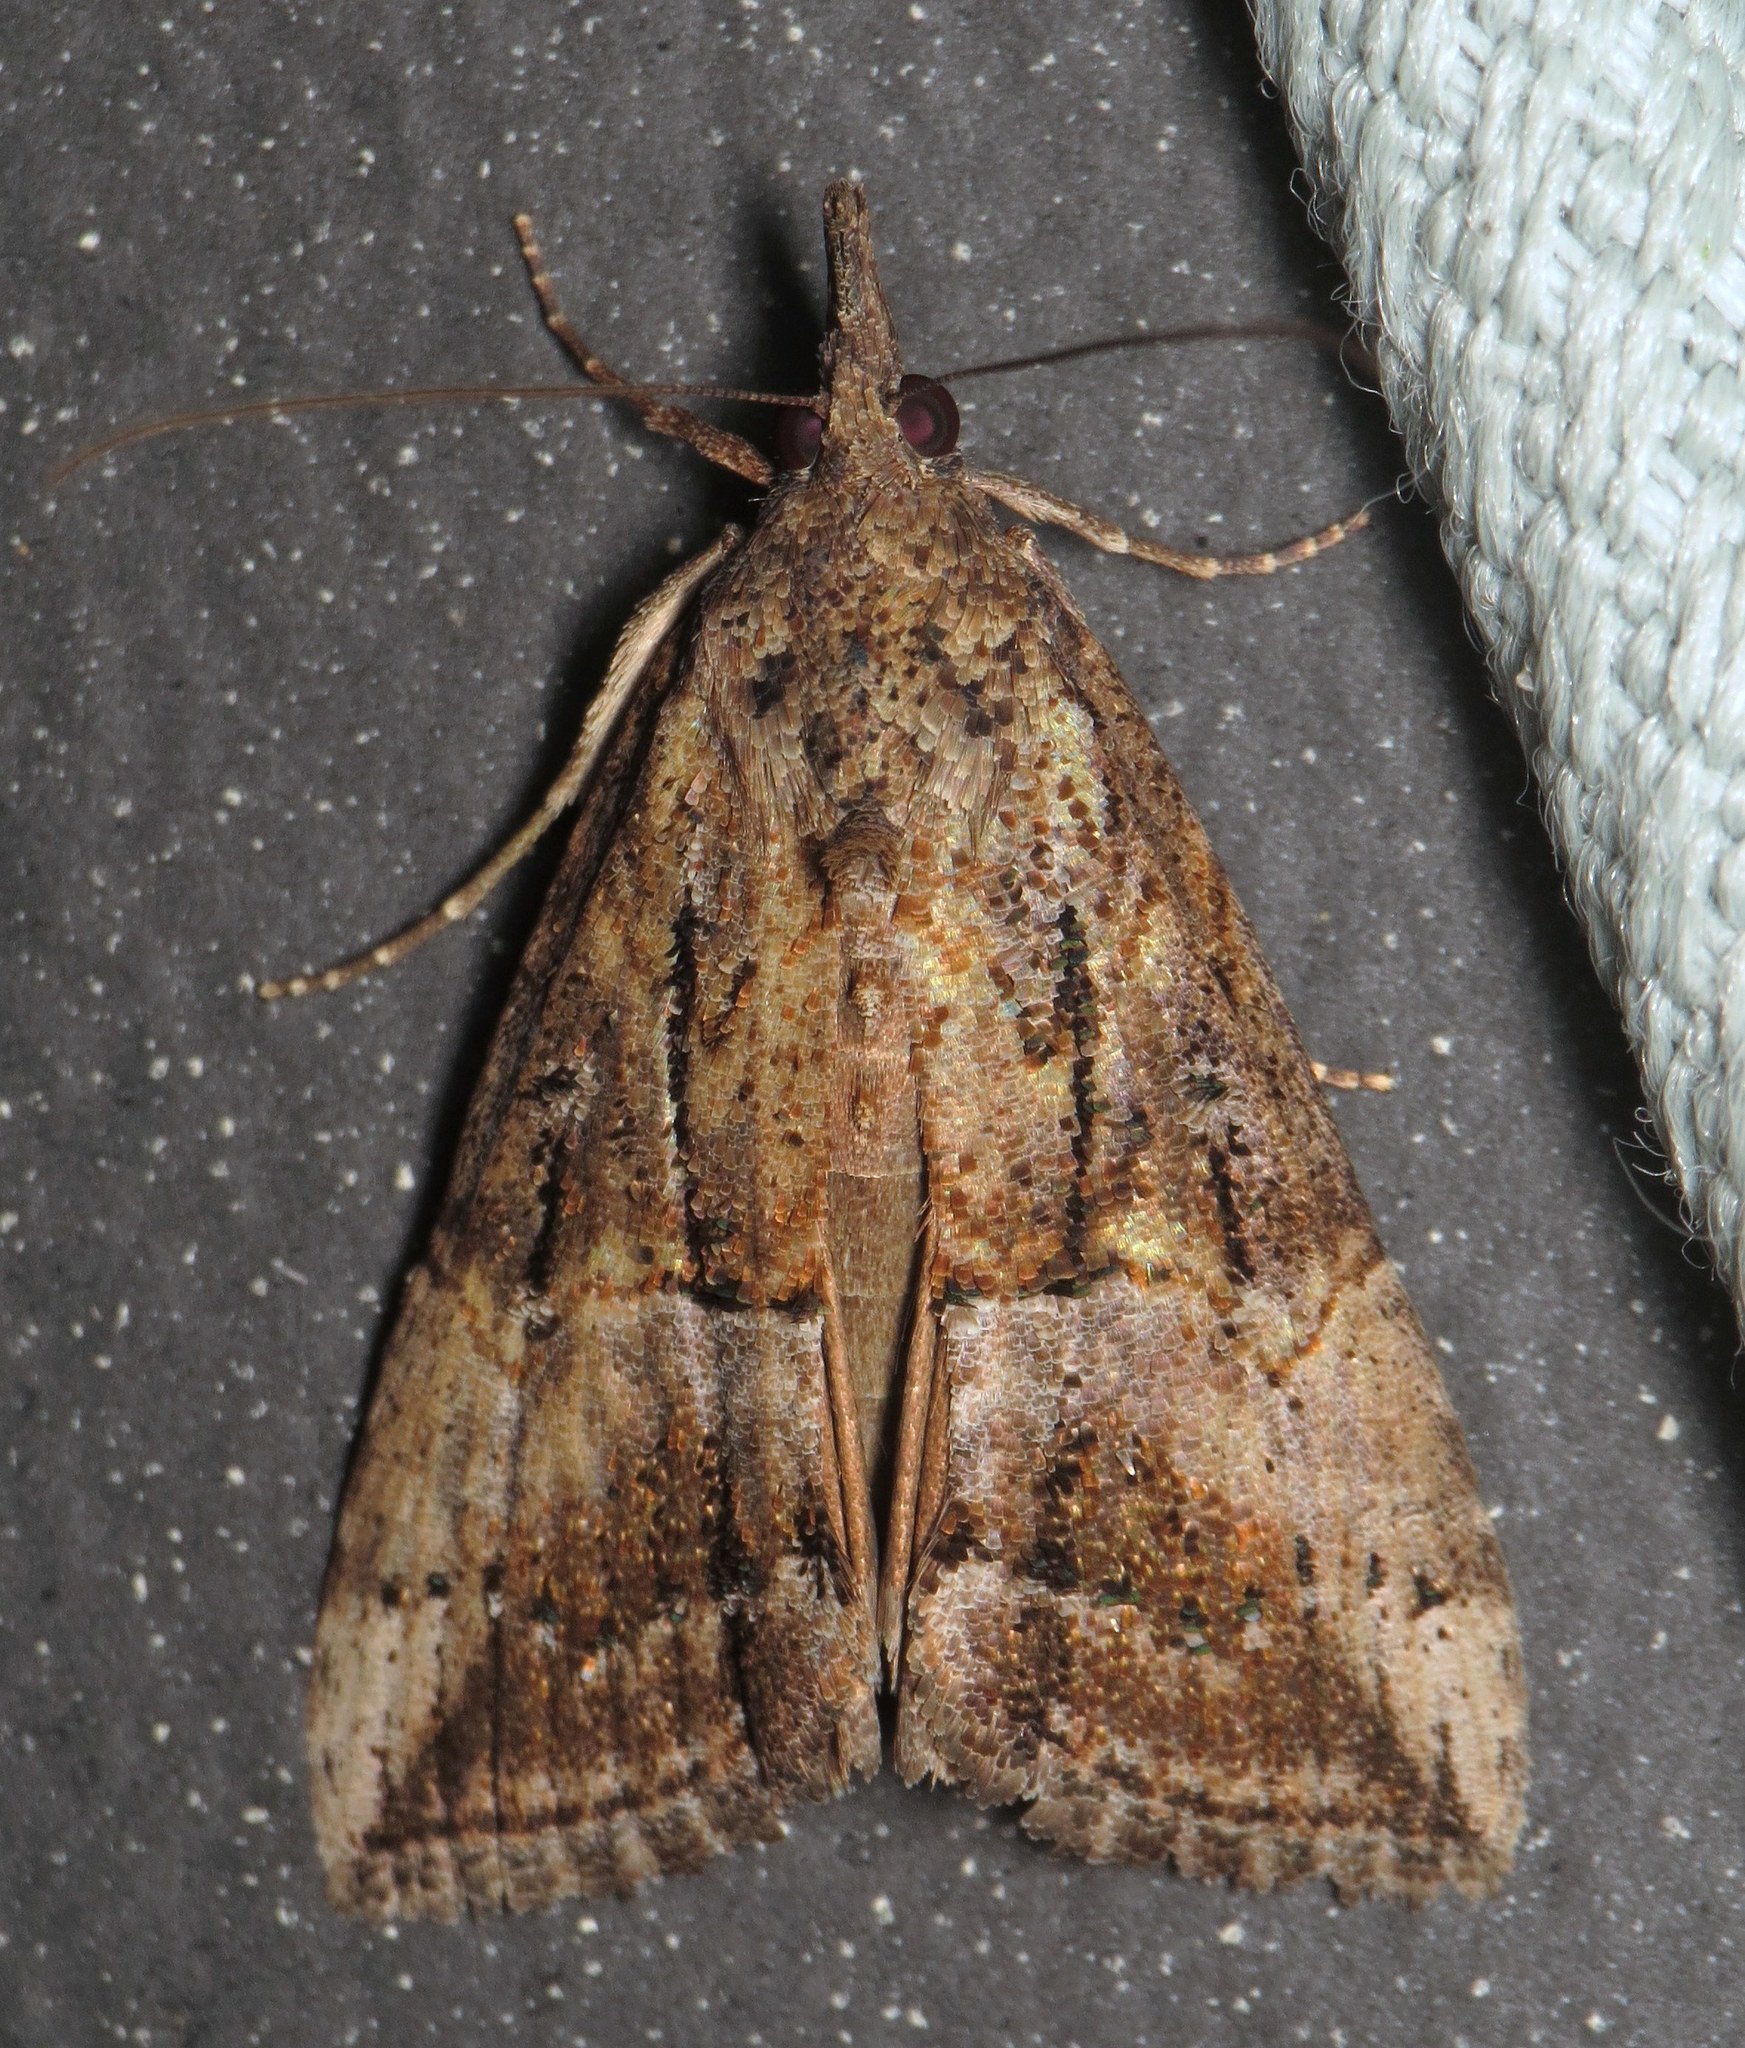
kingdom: Animalia
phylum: Arthropoda
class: Insecta
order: Lepidoptera
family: Erebidae
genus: Hypena
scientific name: Hypena scabra
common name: Green cloverworm
